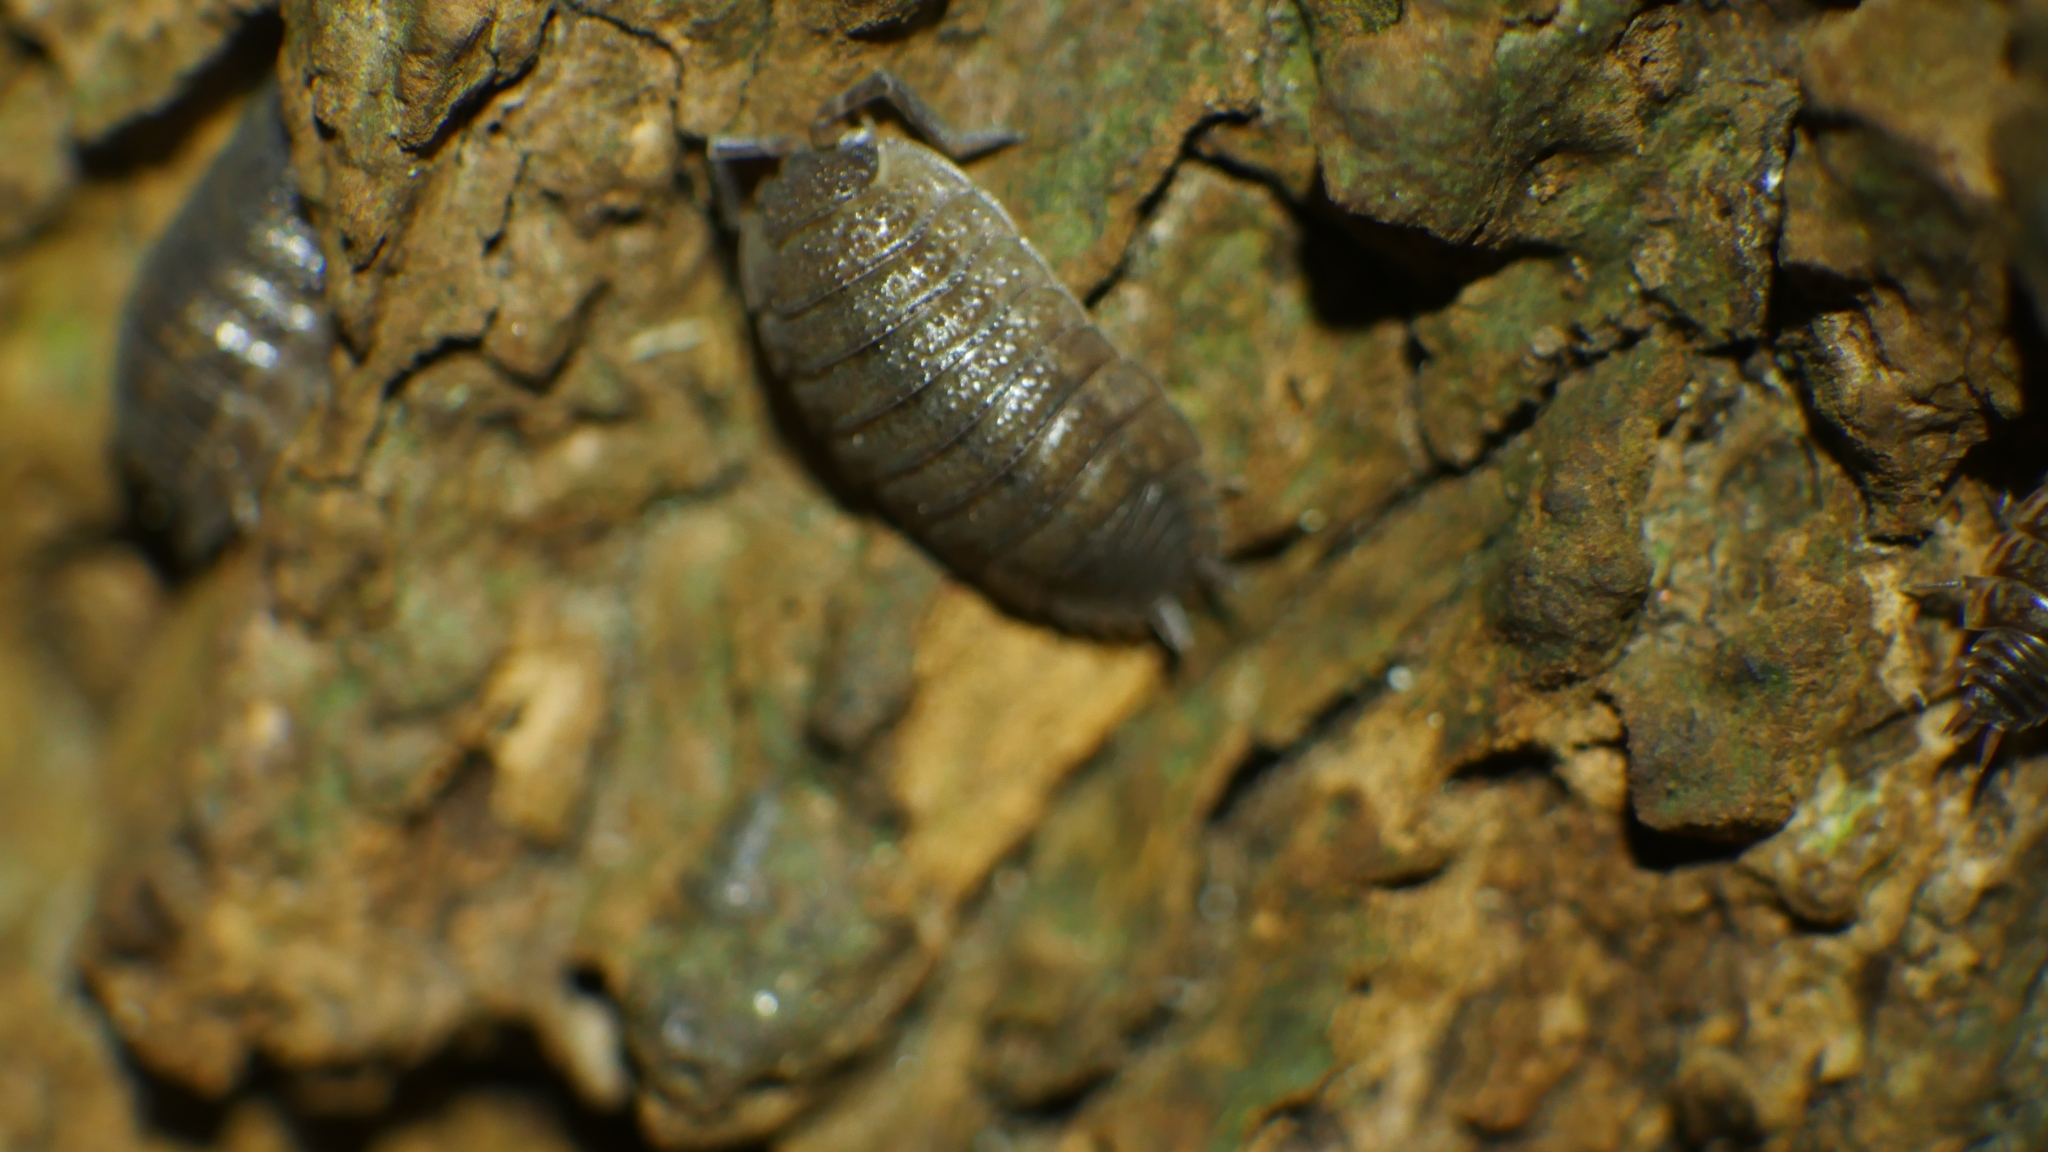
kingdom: Animalia
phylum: Arthropoda
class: Malacostraca
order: Isopoda
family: Porcellionidae
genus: Porcellio
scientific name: Porcellio scaber
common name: Common rough woodlouse
